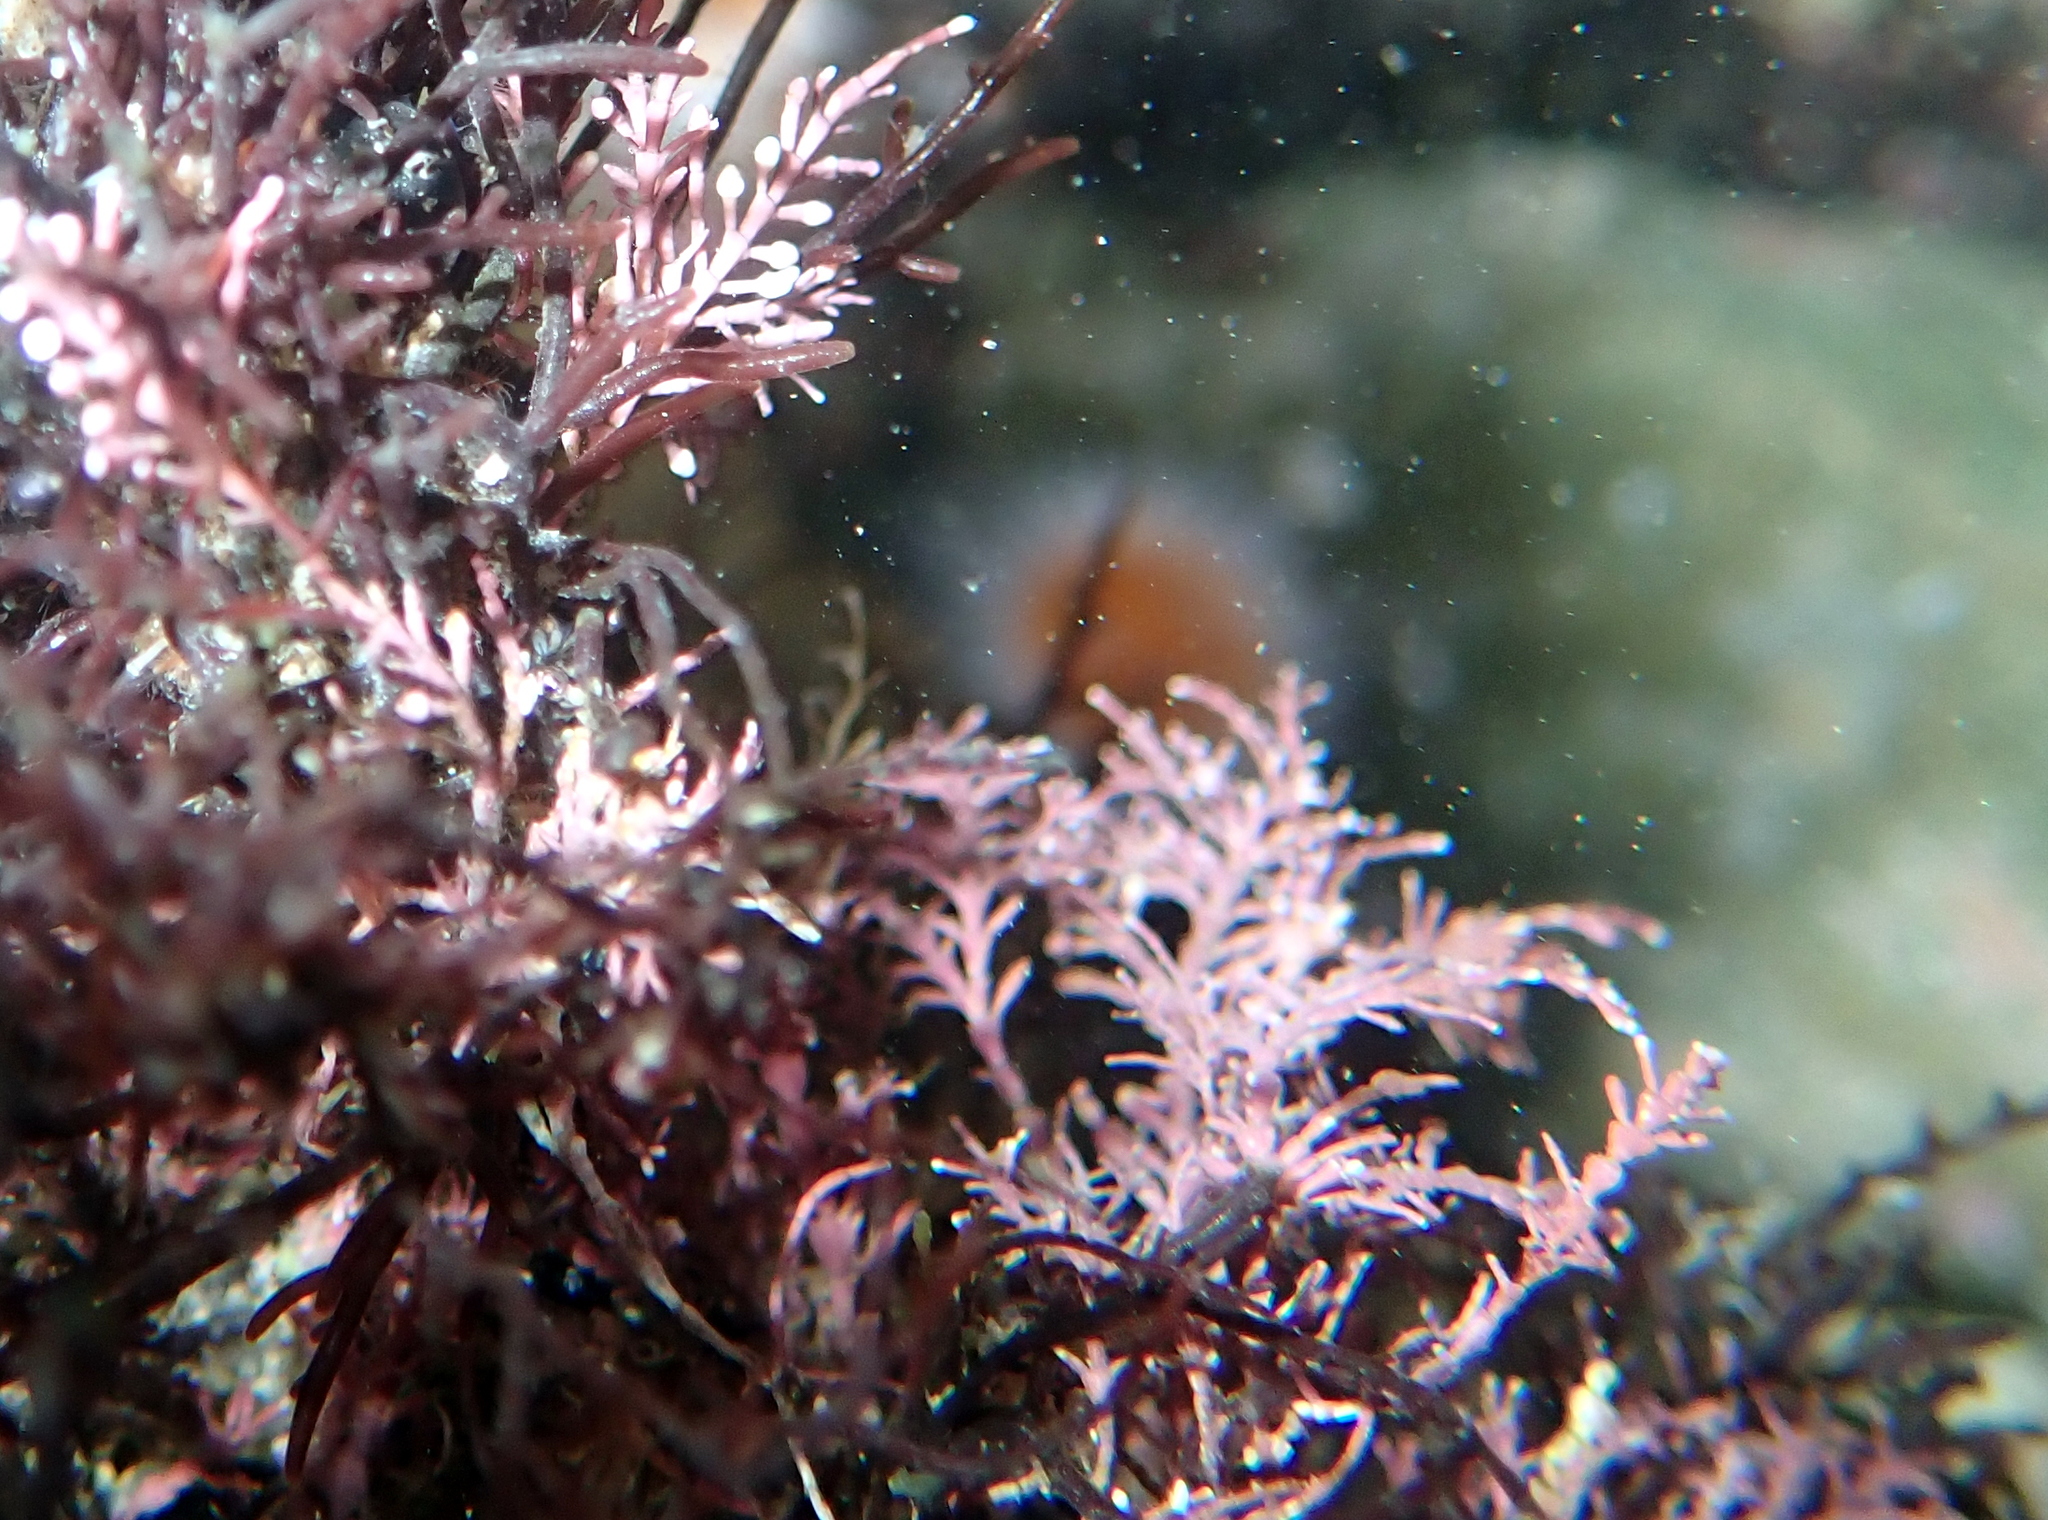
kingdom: Plantae
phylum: Rhodophyta
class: Florideophyceae
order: Corallinales
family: Corallinaceae
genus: Corallina
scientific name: Corallina officinalis
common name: Coral weed
